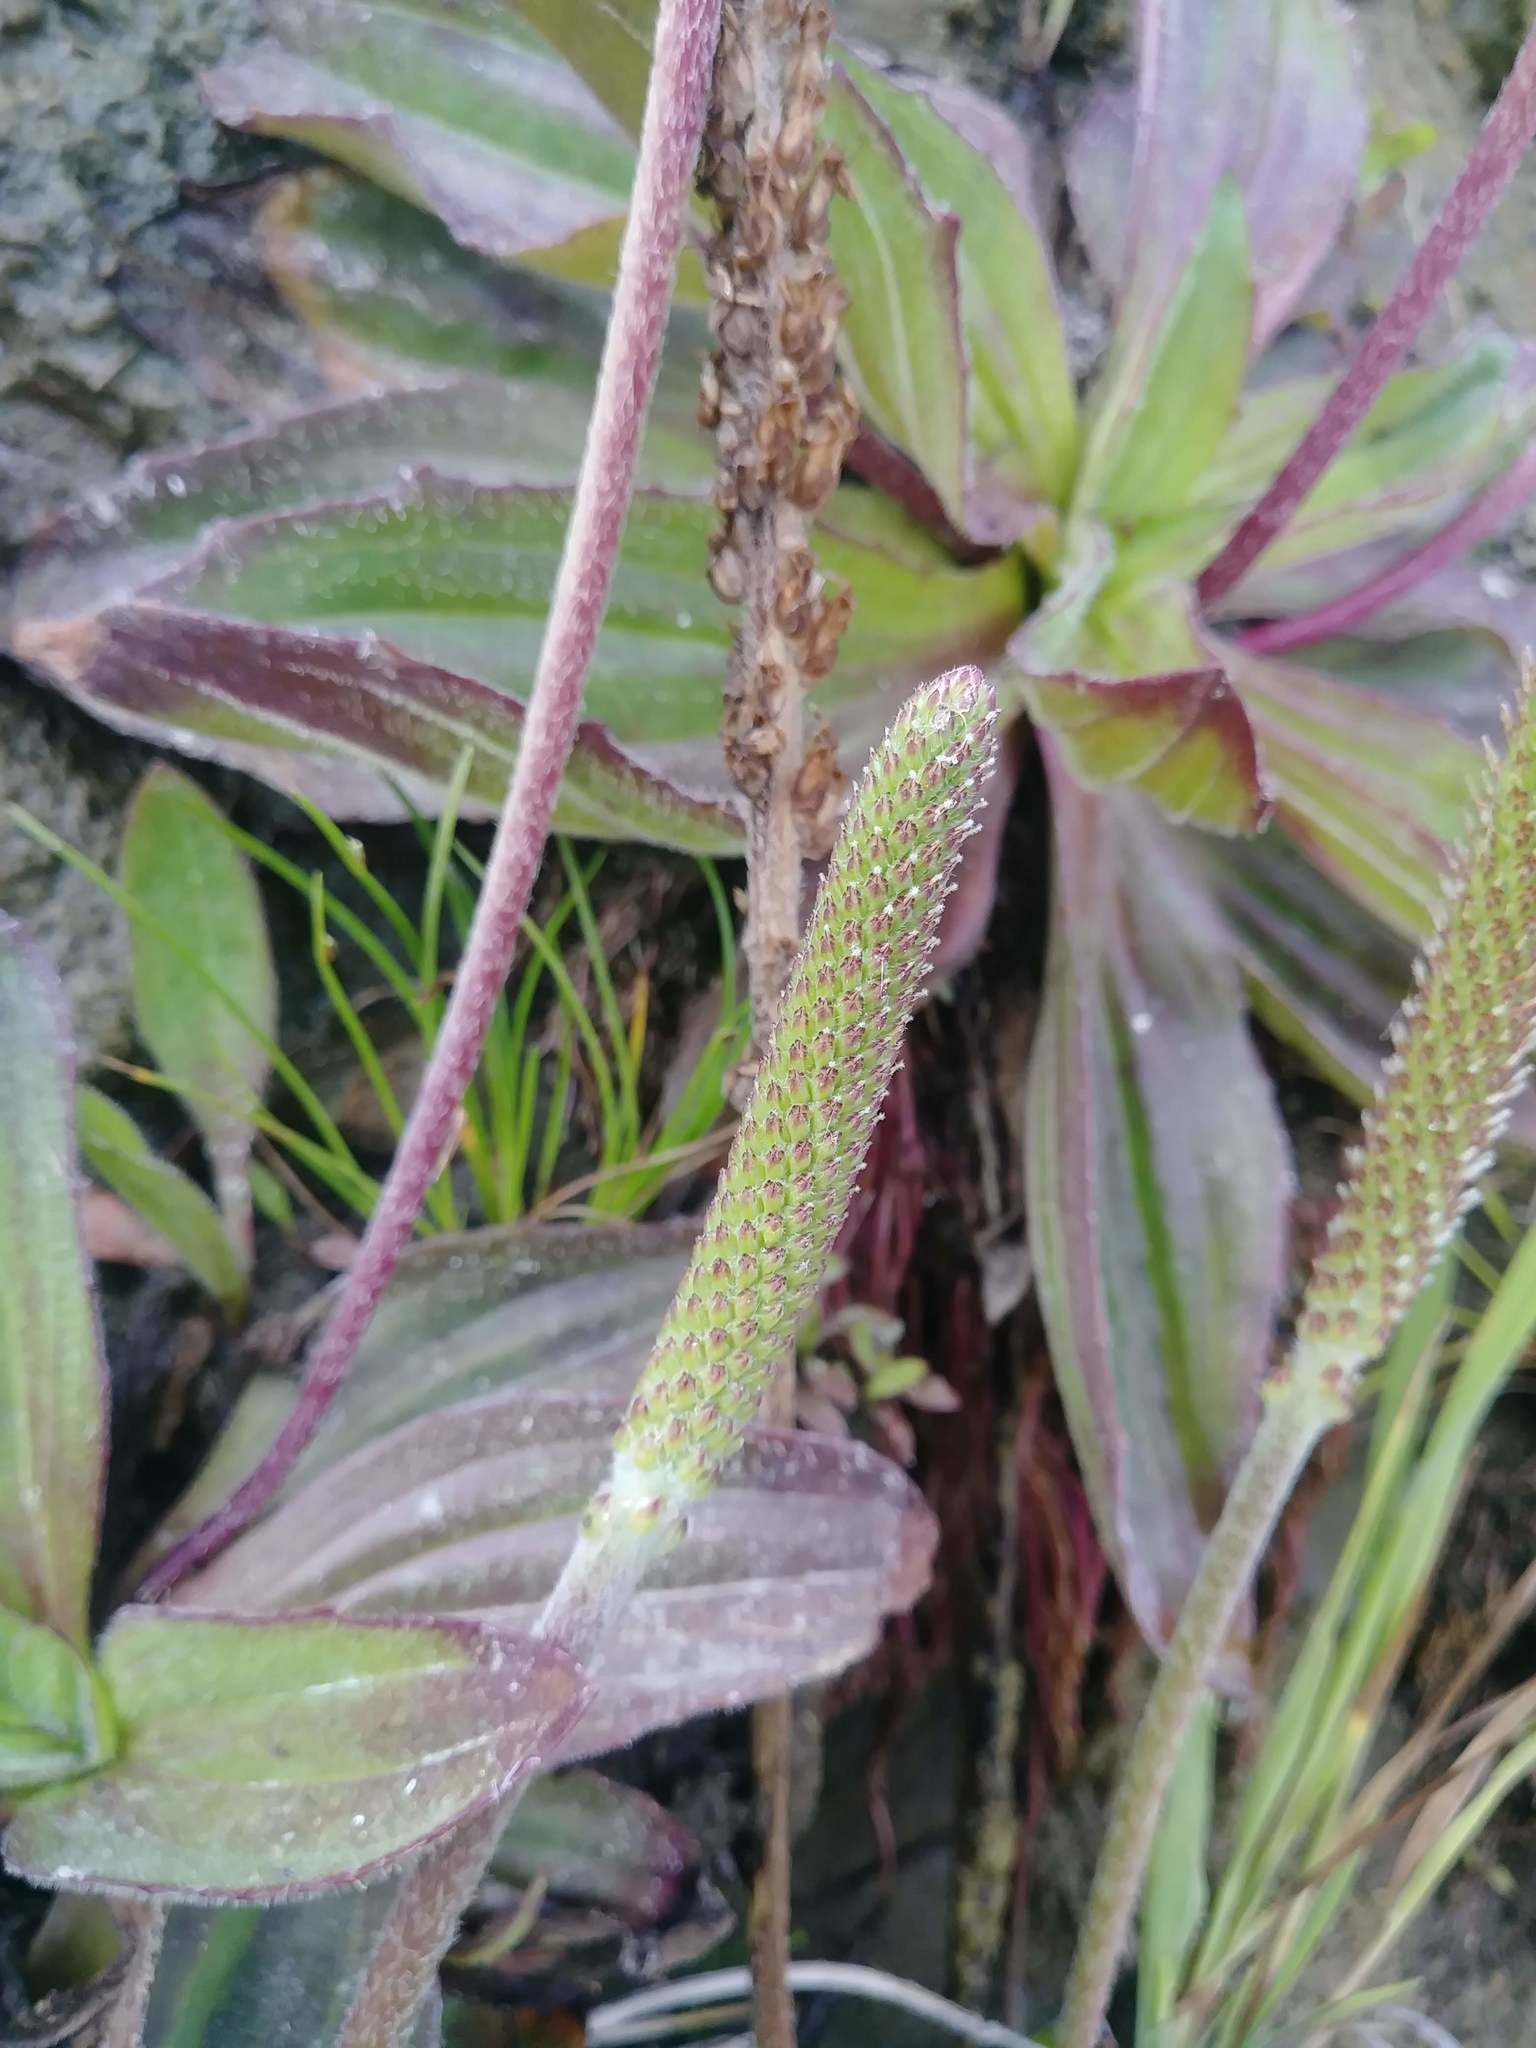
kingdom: Plantae
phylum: Tracheophyta
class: Magnoliopsida
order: Lamiales
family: Plantaginaceae
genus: Plantago
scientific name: Plantago subnuda
